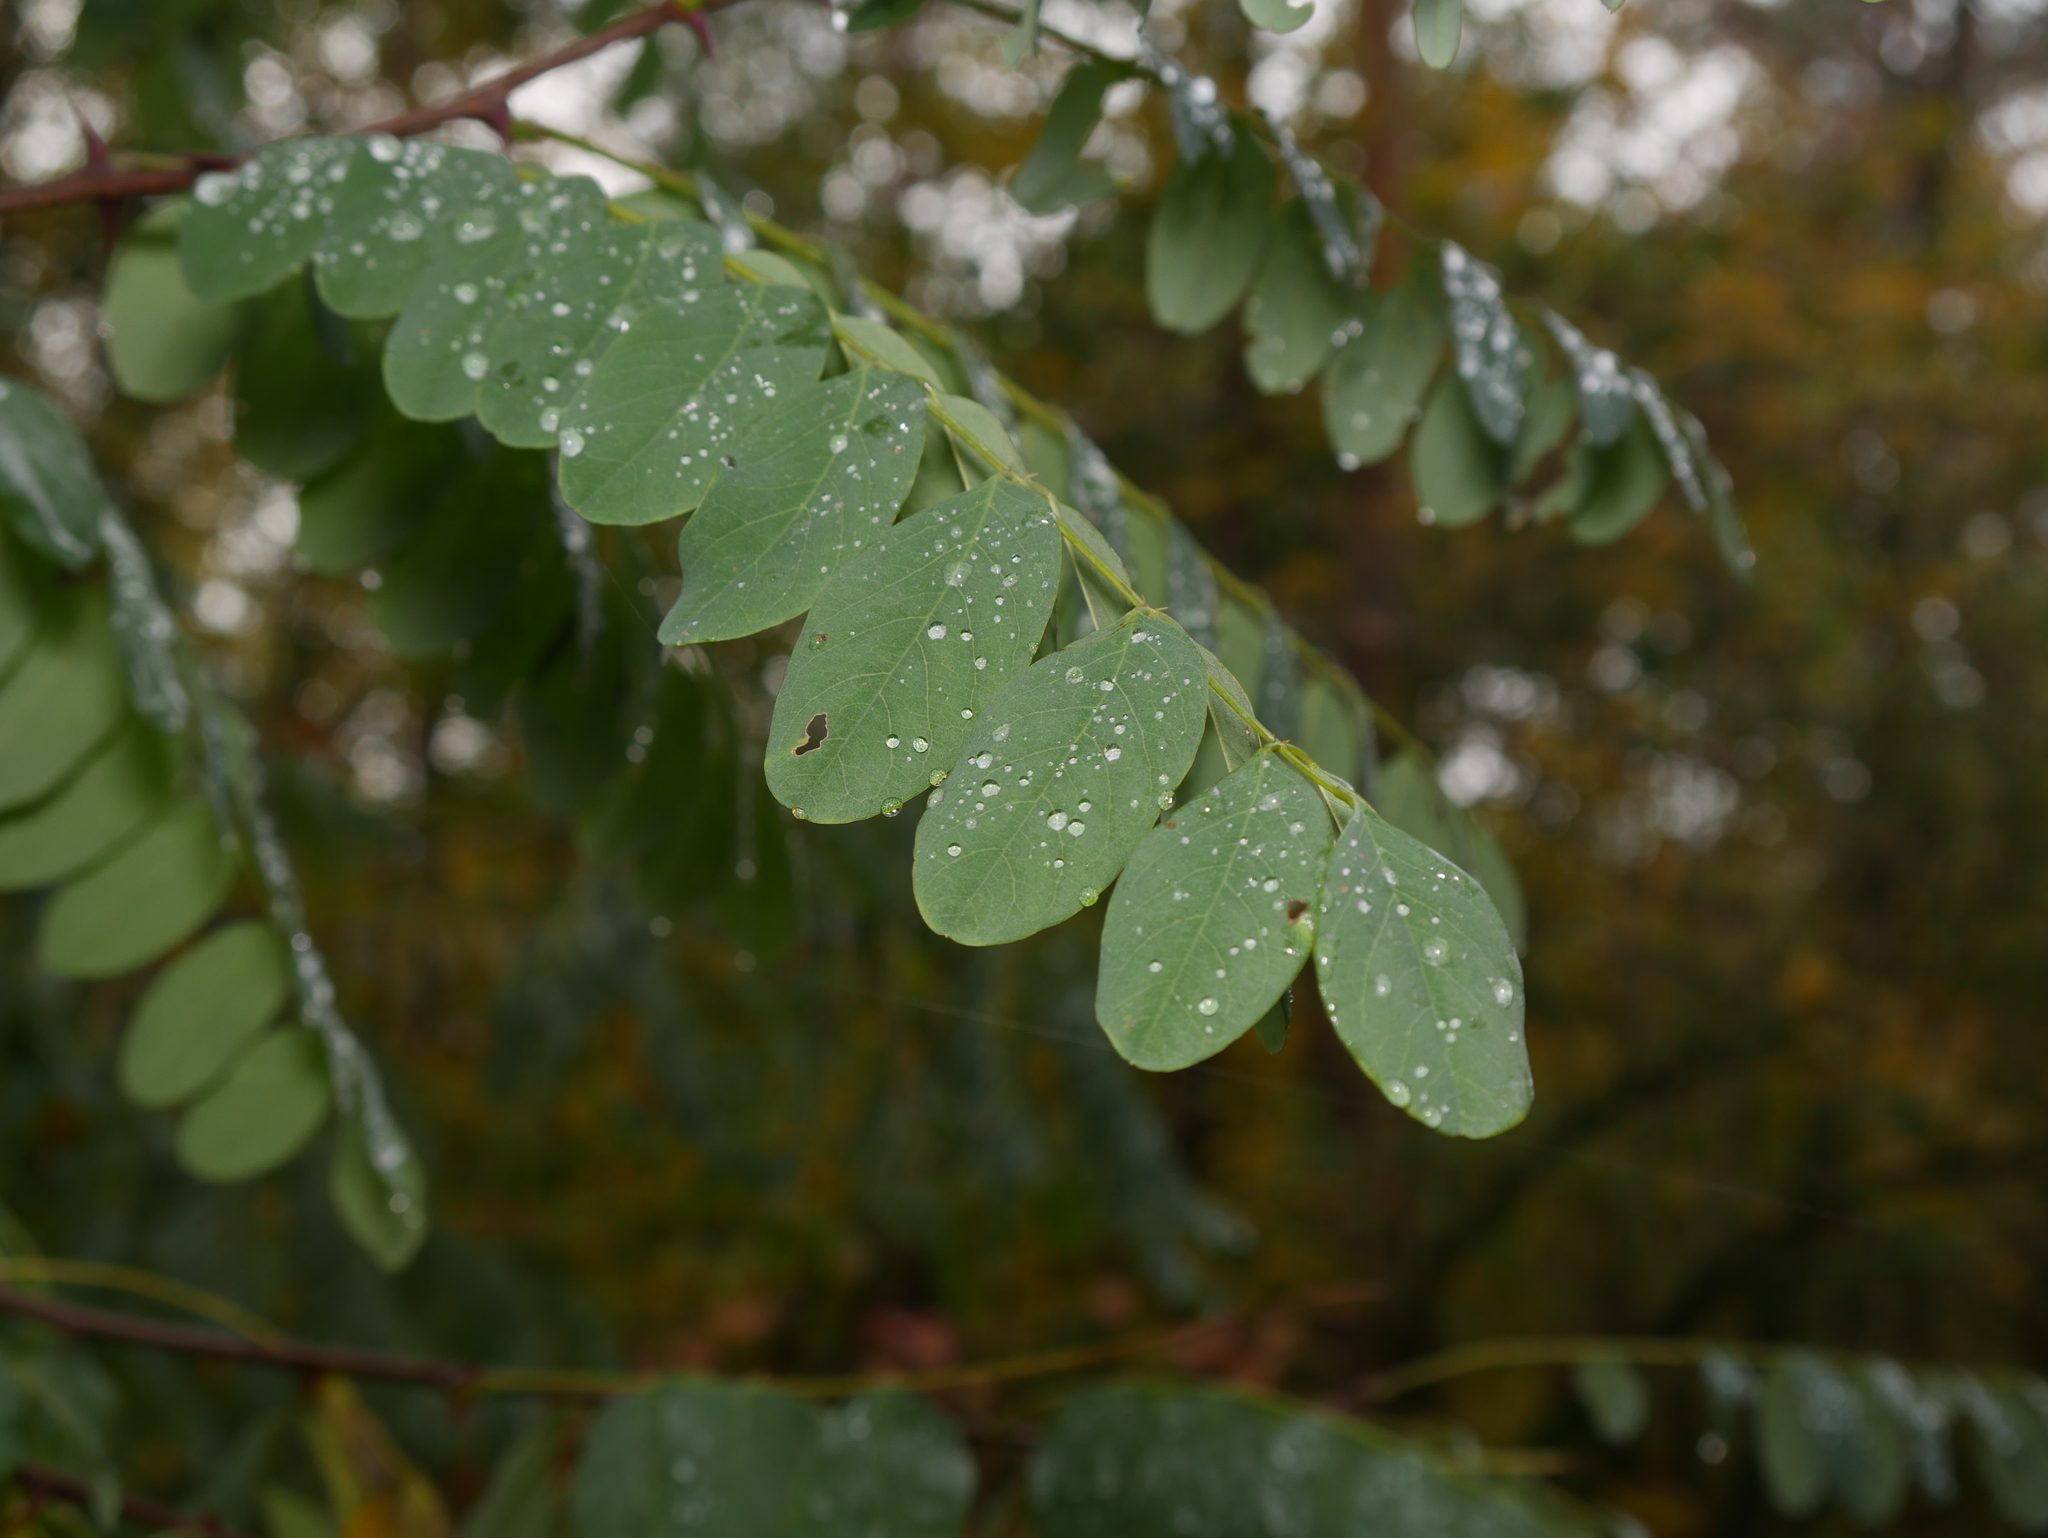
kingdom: Plantae
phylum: Tracheophyta
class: Magnoliopsida
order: Fabales
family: Fabaceae
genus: Robinia
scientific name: Robinia pseudoacacia
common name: Black locust
